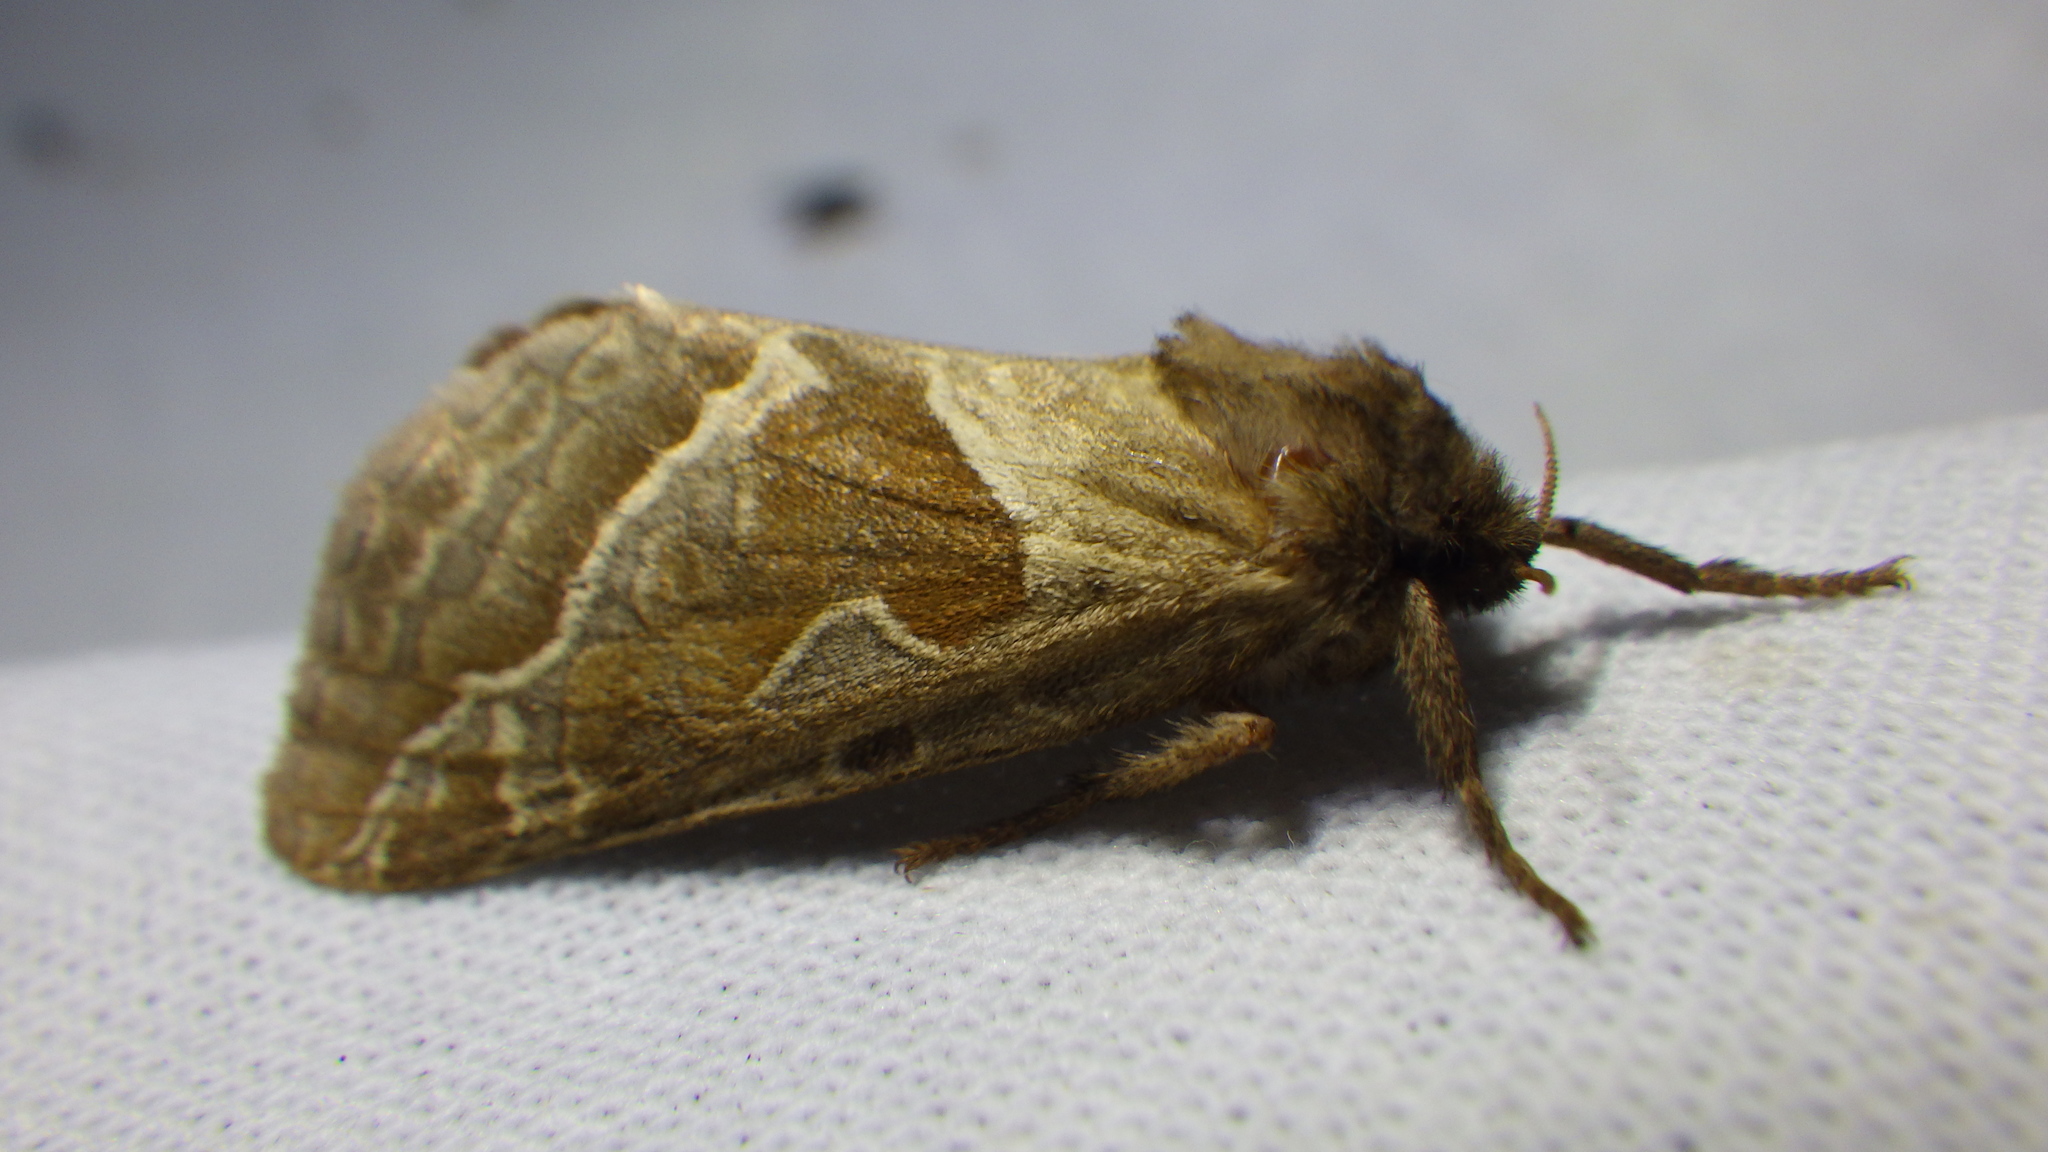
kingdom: Animalia
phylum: Arthropoda
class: Insecta
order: Lepidoptera
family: Hepialidae
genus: Triodia
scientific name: Triodia sylvina
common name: Orange swift
